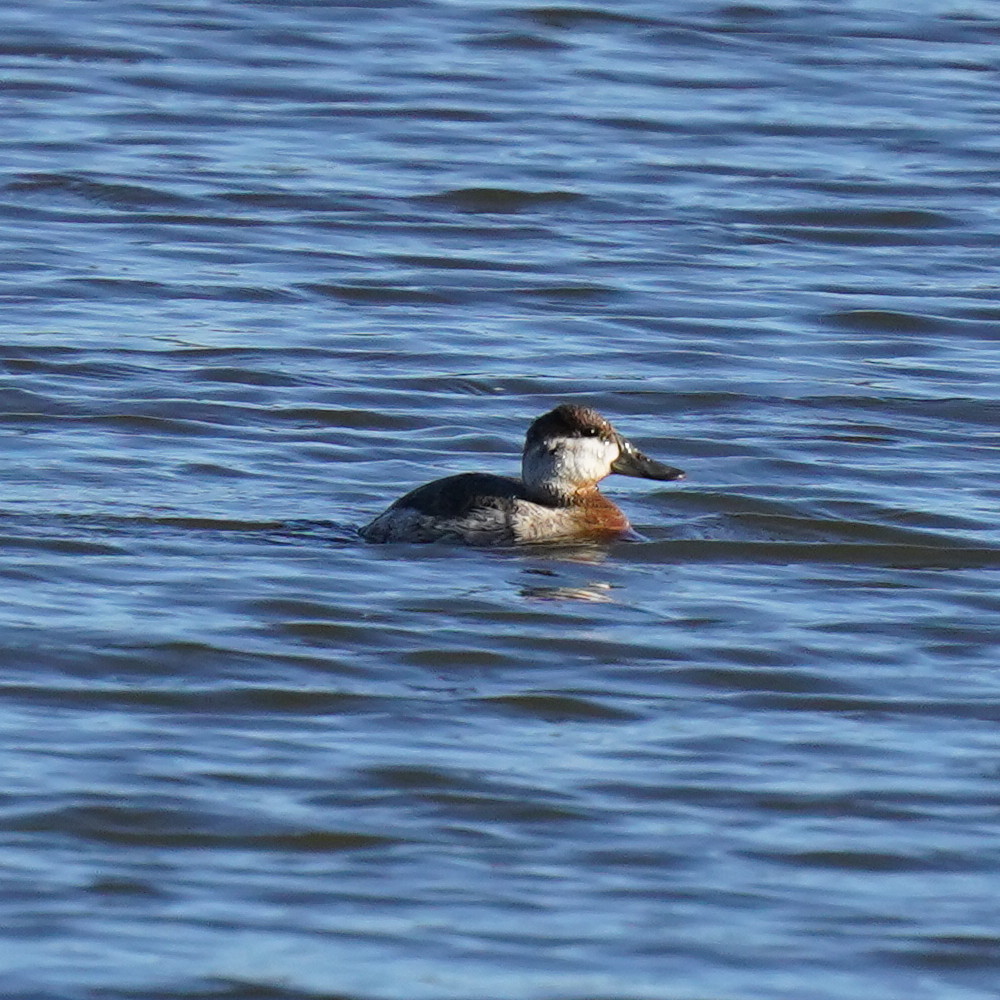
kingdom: Animalia
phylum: Chordata
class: Aves
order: Anseriformes
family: Anatidae
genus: Oxyura
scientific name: Oxyura jamaicensis
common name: Ruddy duck
